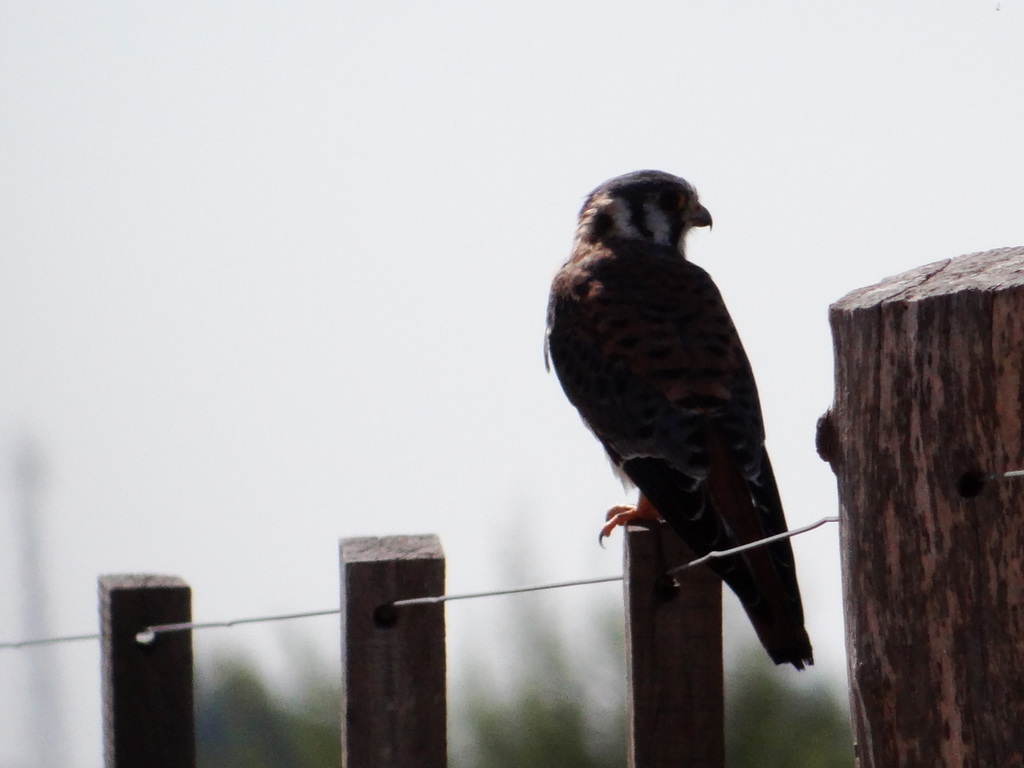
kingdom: Animalia
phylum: Chordata
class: Aves
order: Falconiformes
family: Falconidae
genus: Falco
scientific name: Falco sparverius
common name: American kestrel
